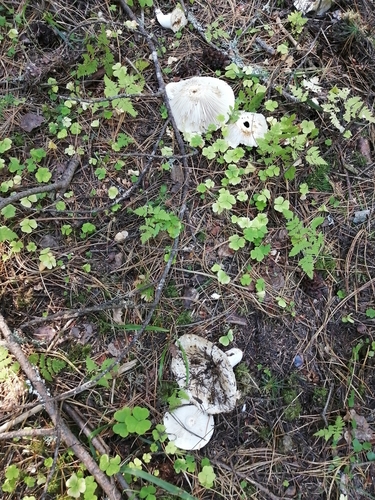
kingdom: Fungi
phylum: Basidiomycota
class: Agaricomycetes
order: Russulales
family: Russulaceae
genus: Russula
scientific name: Russula delica
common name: Milk white brittlegill
